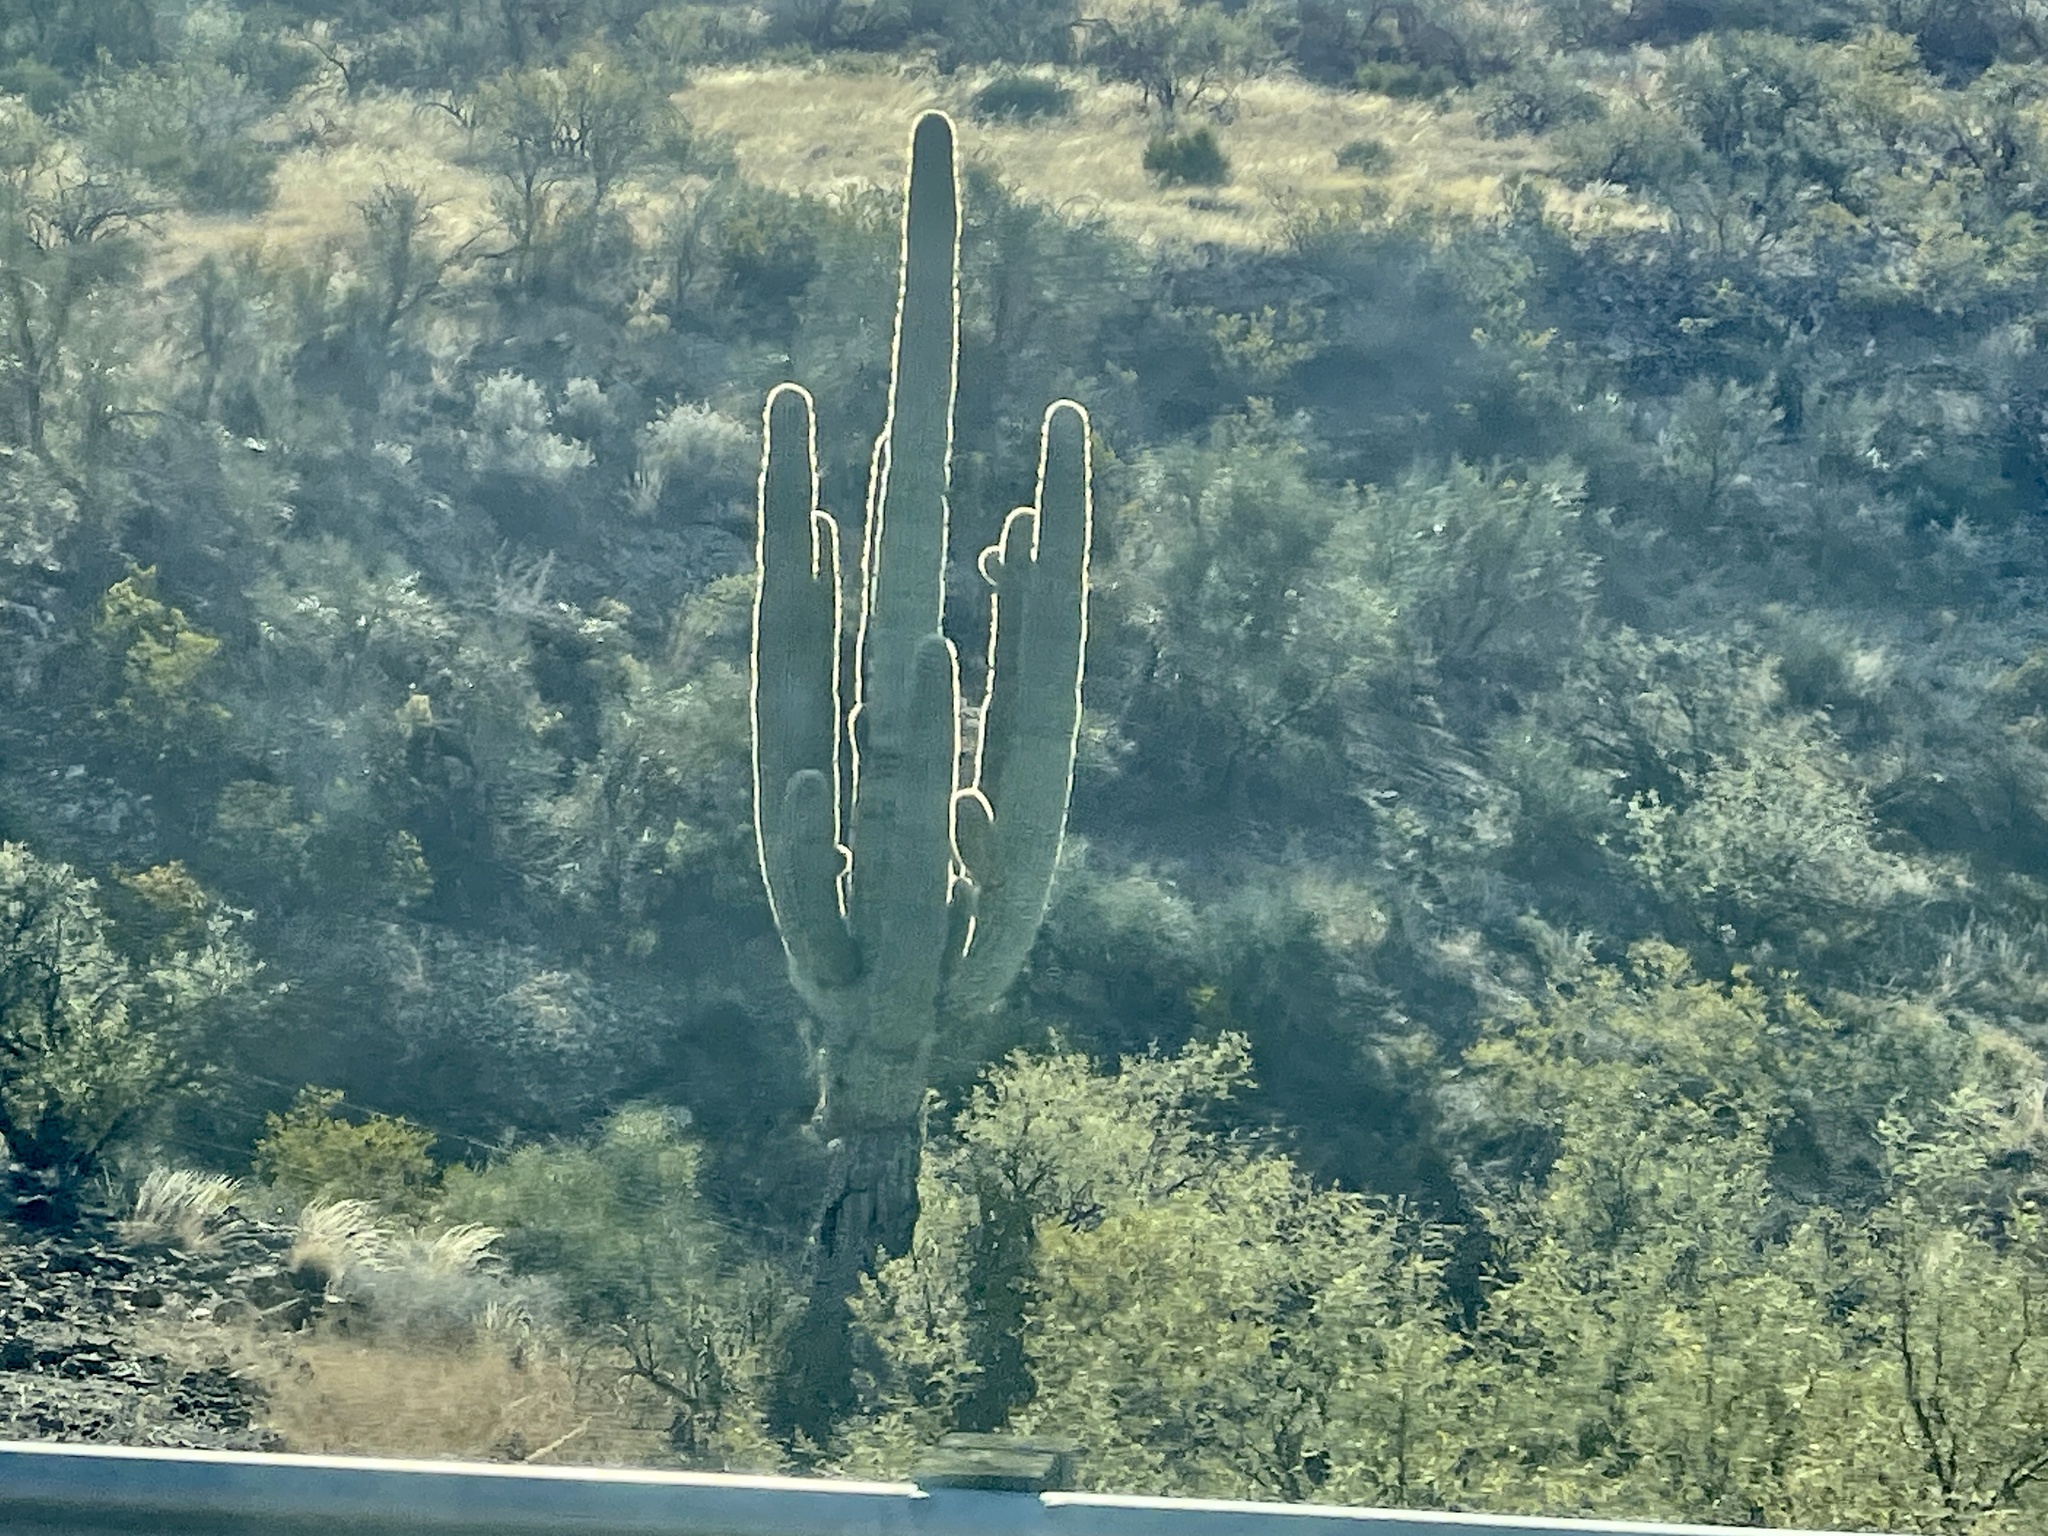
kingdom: Plantae
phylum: Tracheophyta
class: Magnoliopsida
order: Caryophyllales
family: Cactaceae
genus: Carnegiea
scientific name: Carnegiea gigantea
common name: Saguaro
